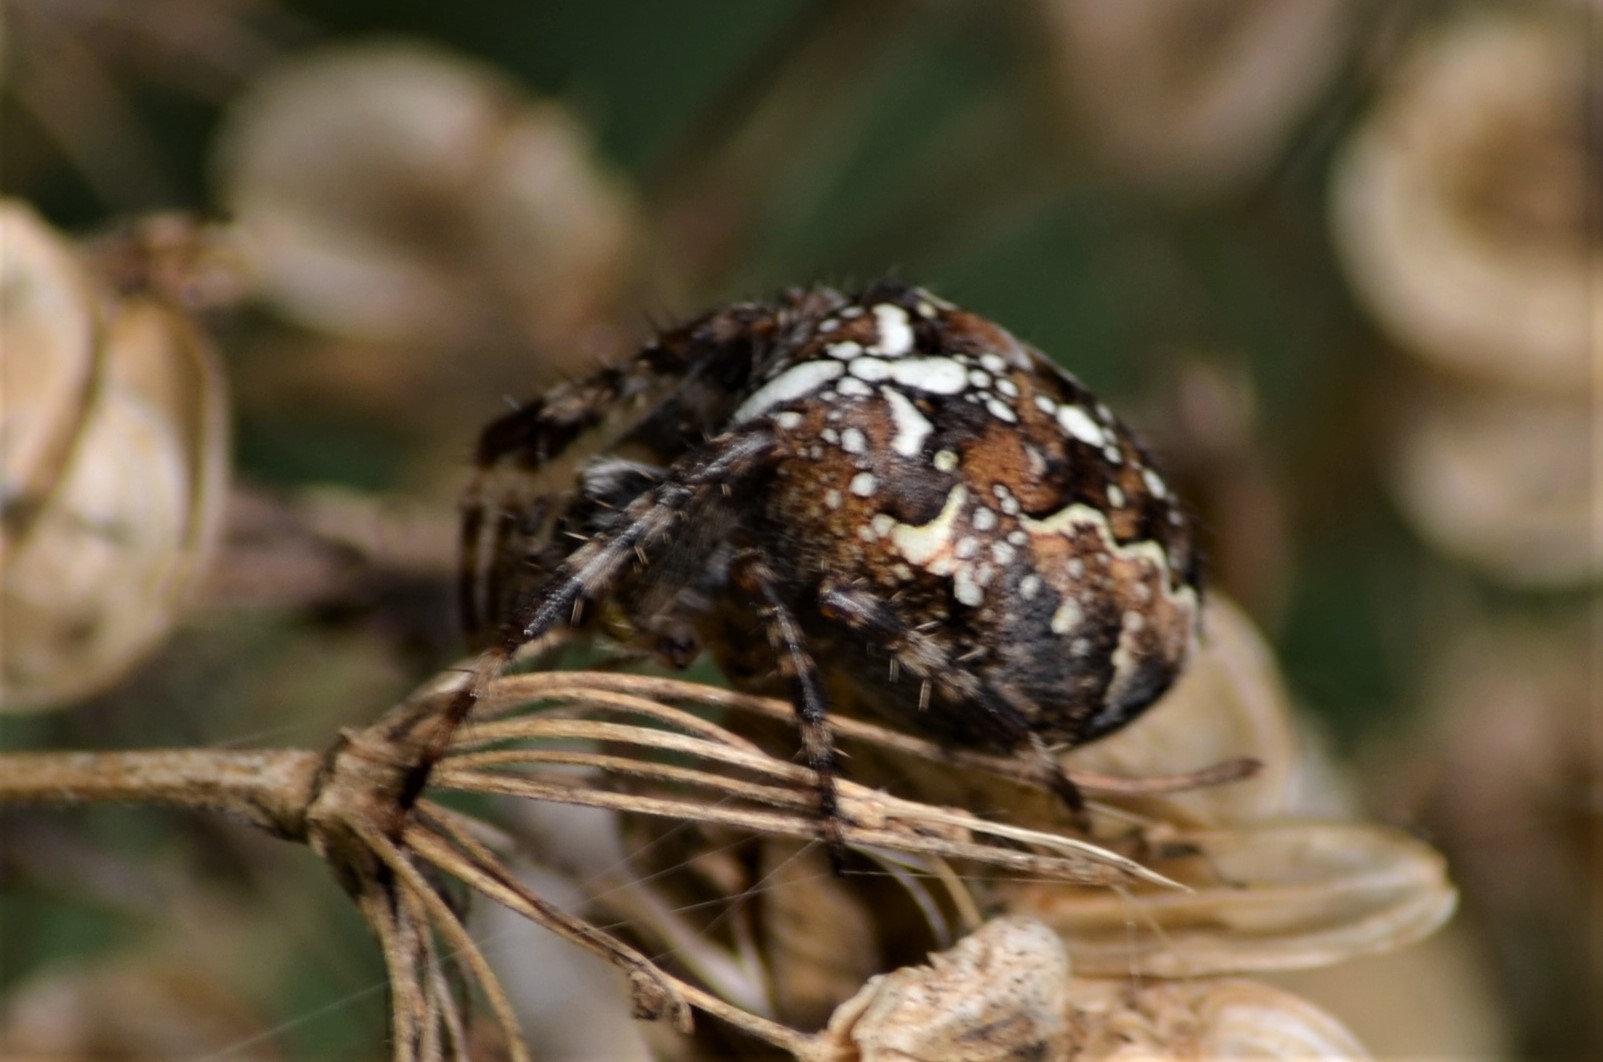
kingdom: Animalia
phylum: Arthropoda
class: Arachnida
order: Araneae
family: Araneidae
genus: Araneus
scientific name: Araneus diadematus
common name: Cross orbweaver
